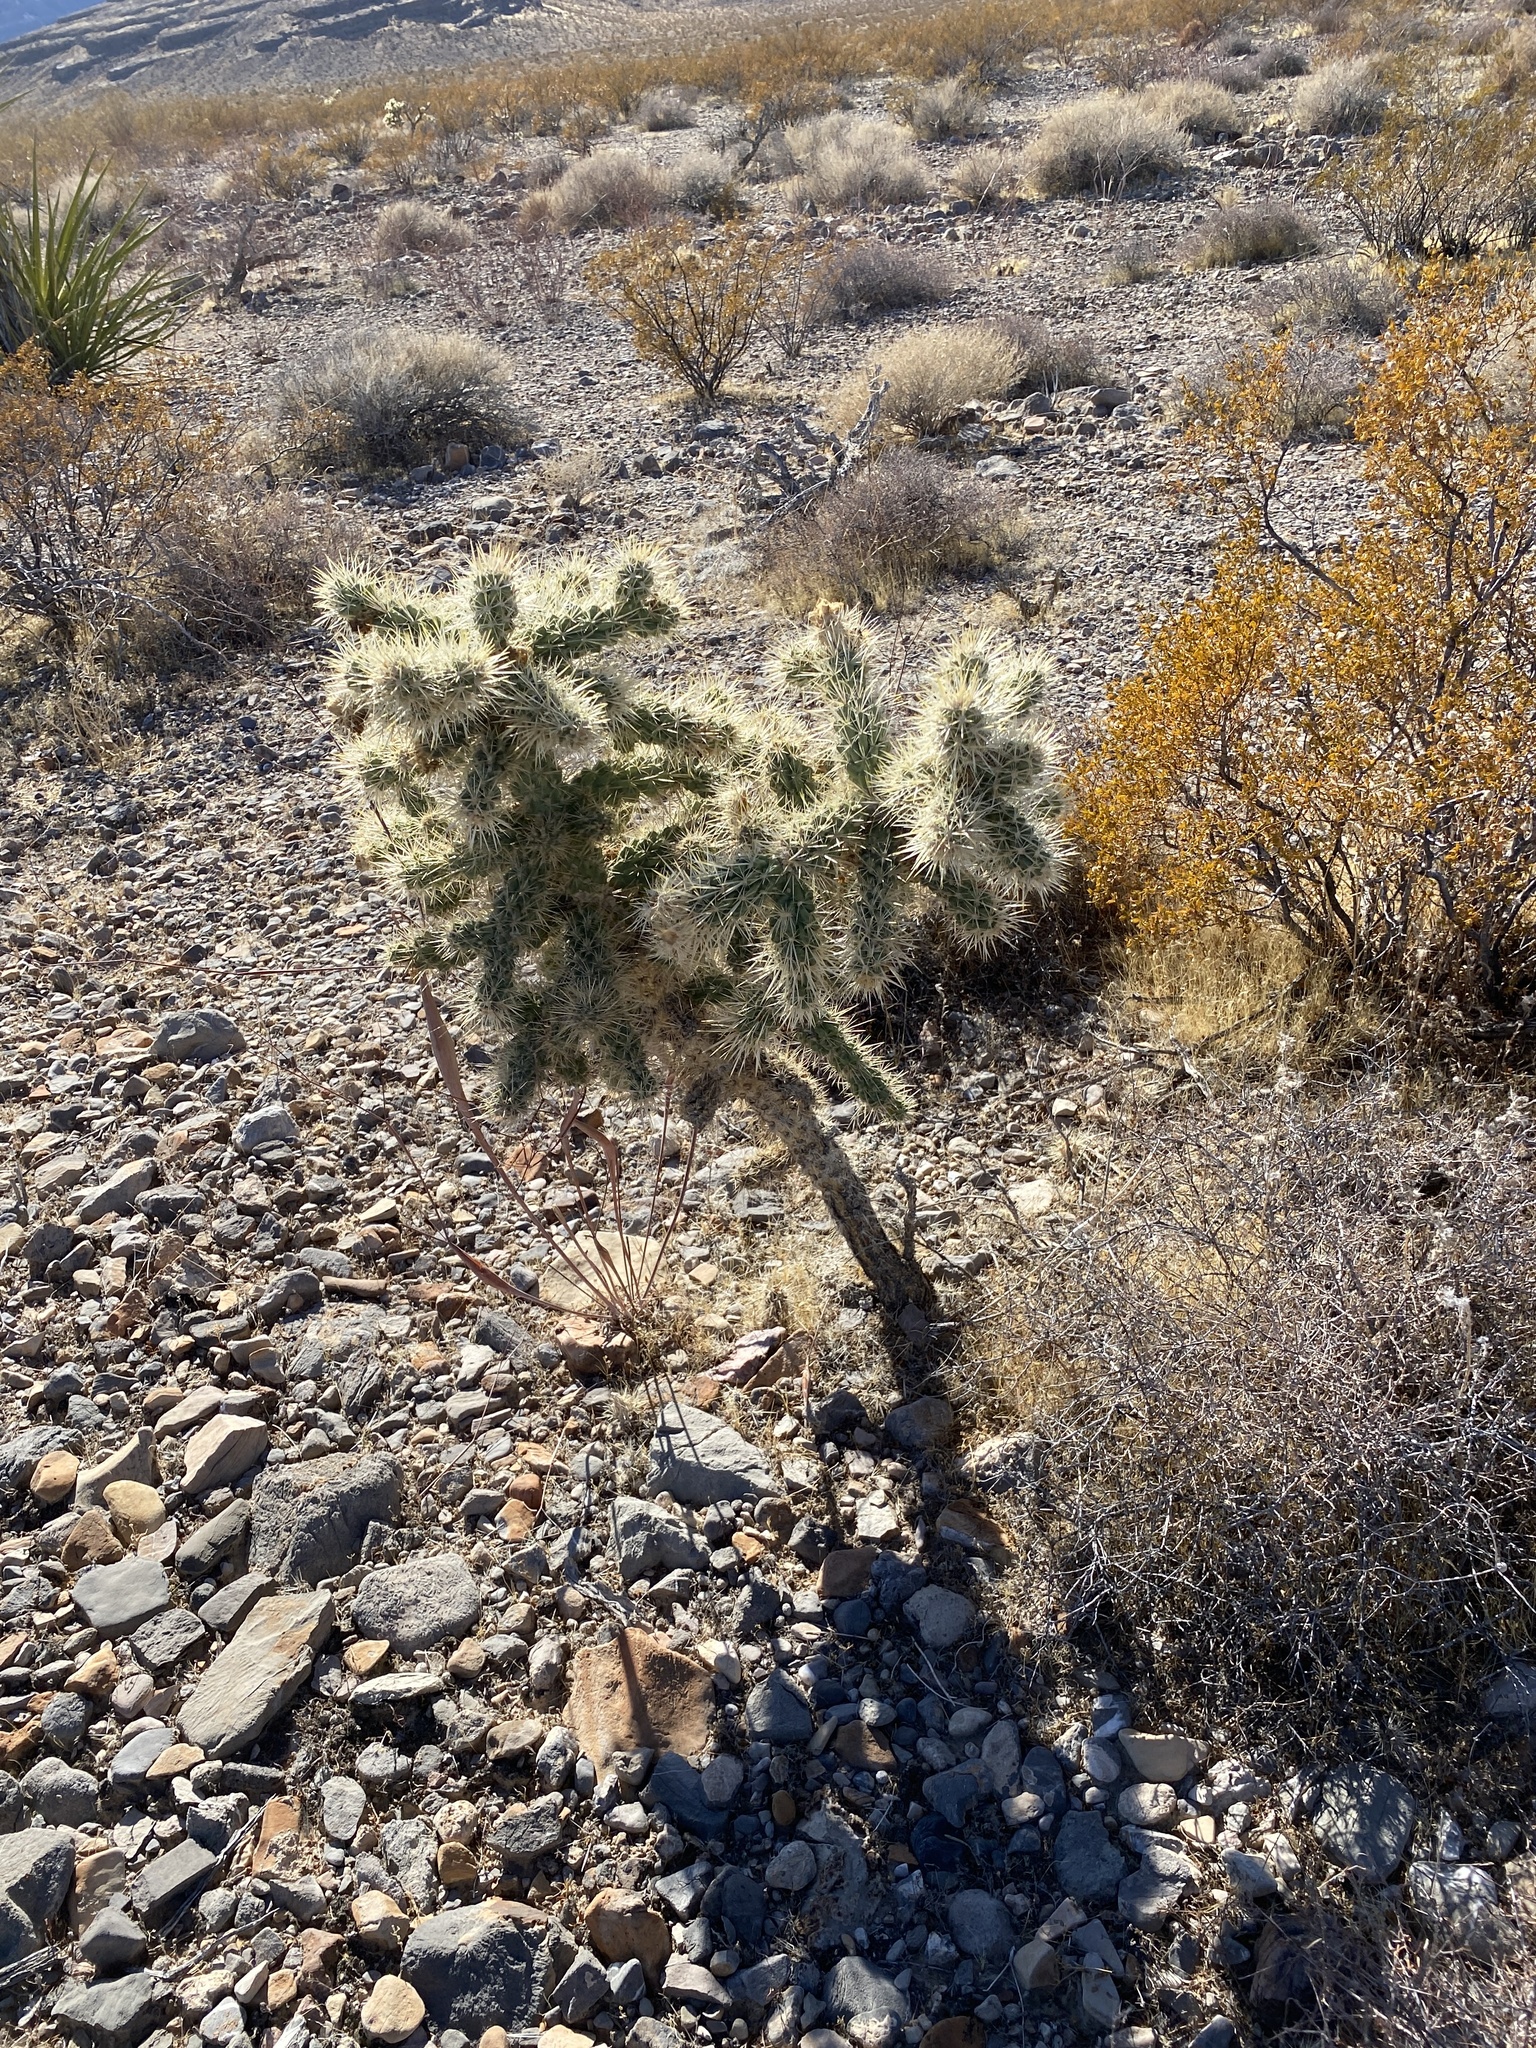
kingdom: Plantae
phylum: Tracheophyta
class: Magnoliopsida
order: Caryophyllales
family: Cactaceae
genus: Cylindropuntia
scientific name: Cylindropuntia echinocarpa
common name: Ground cholla
